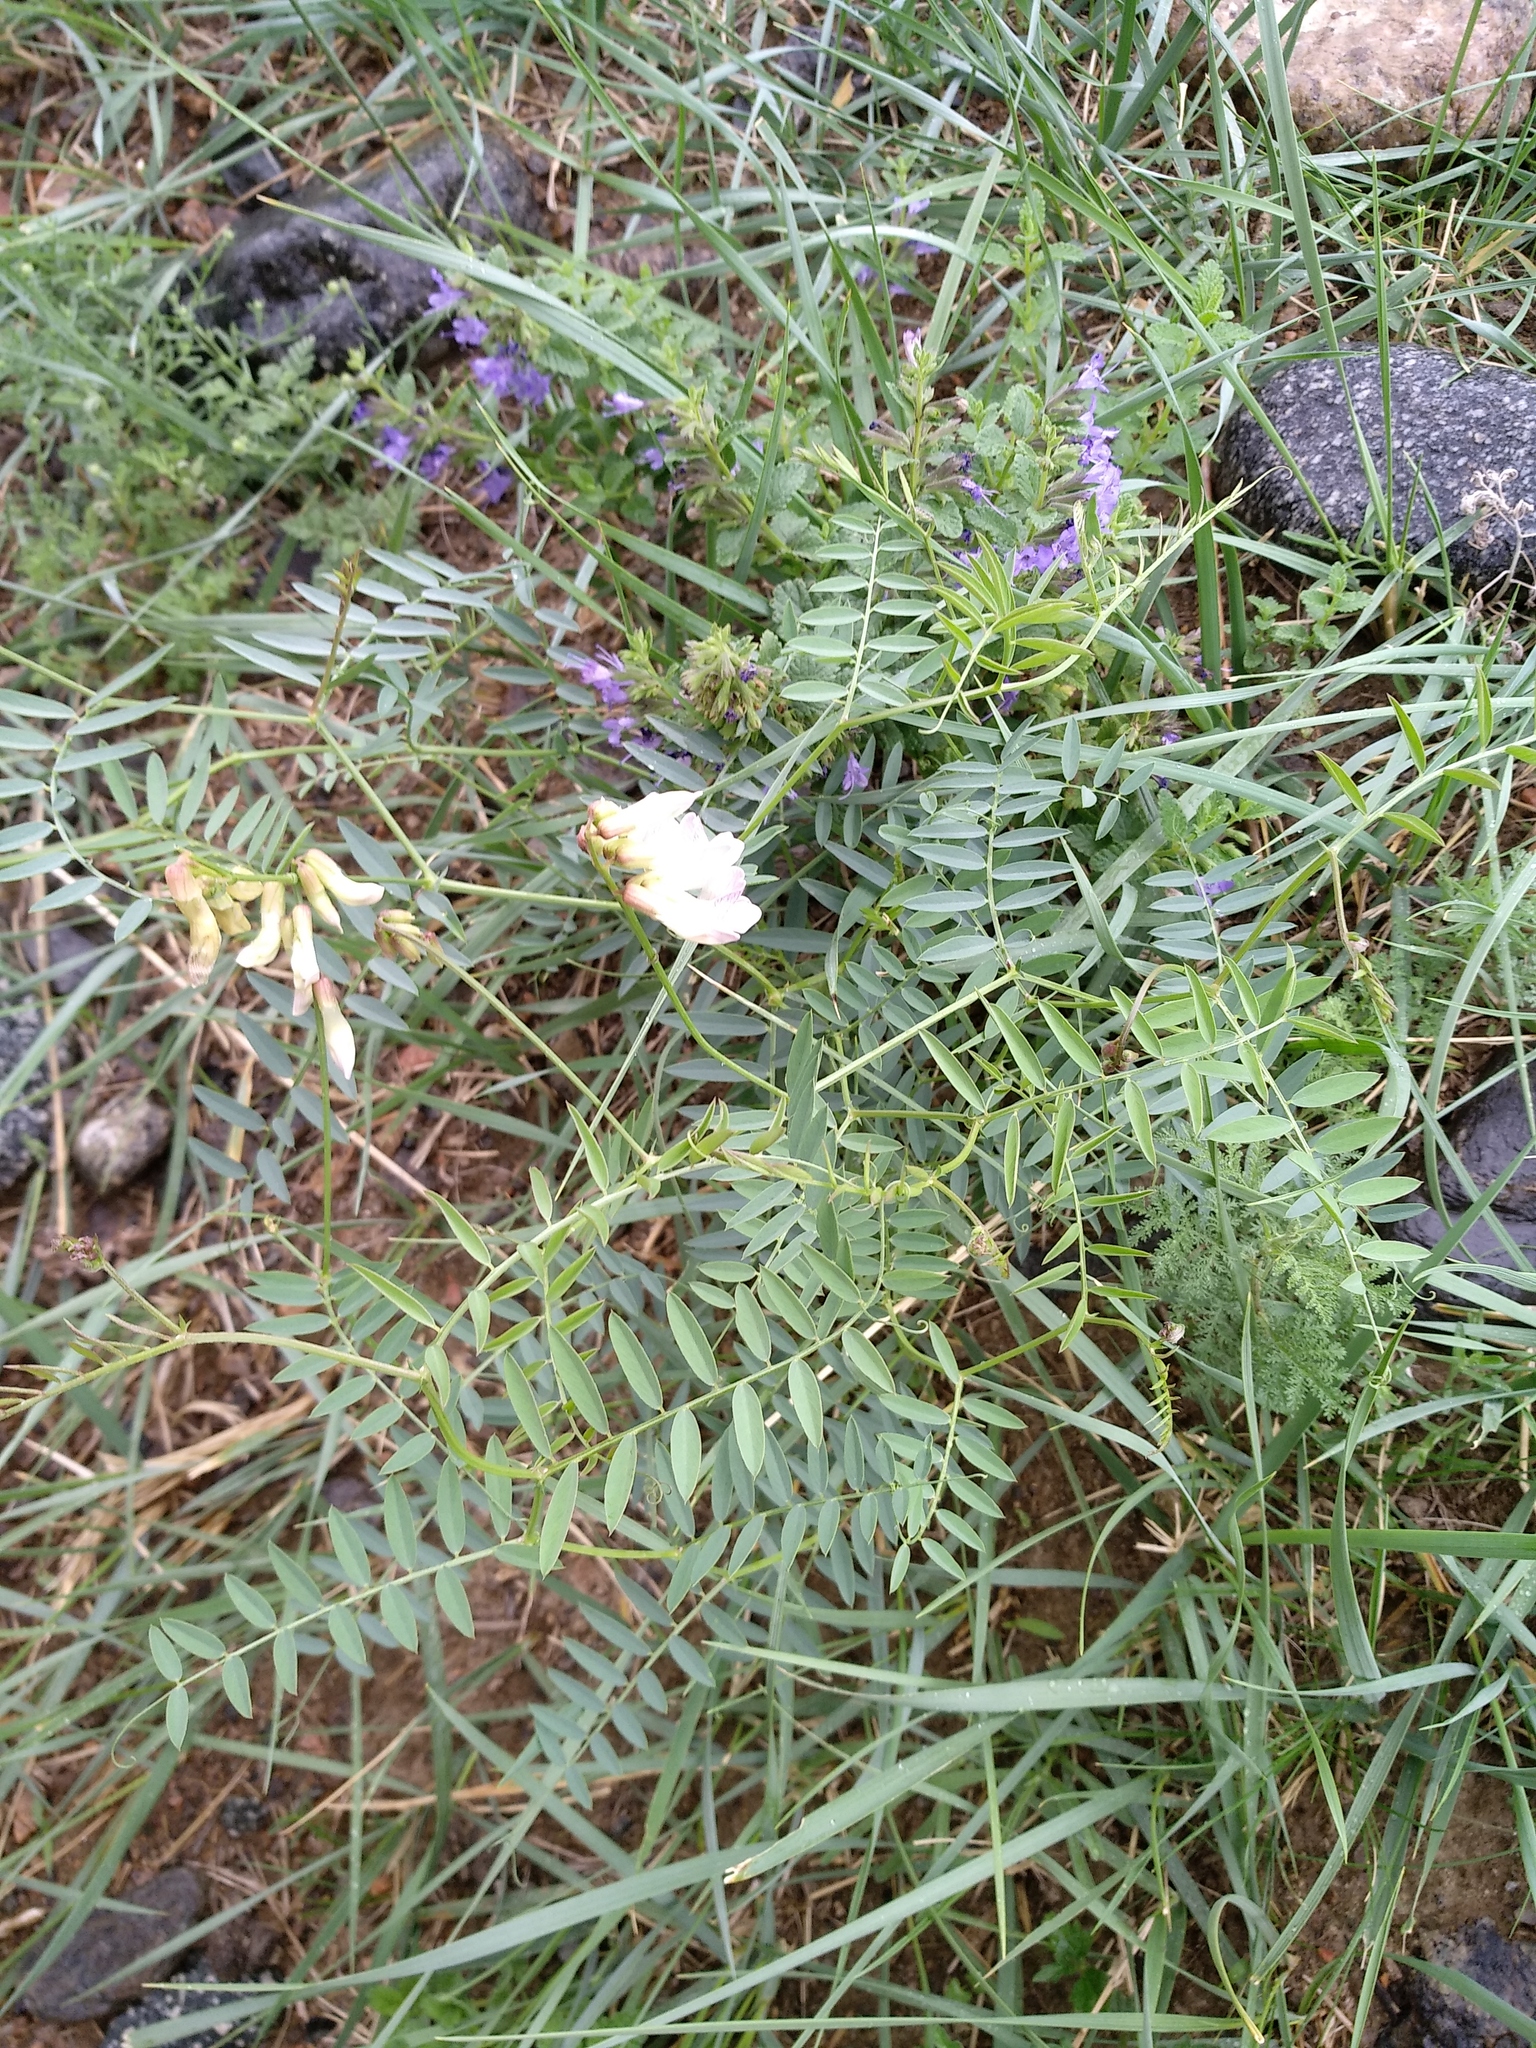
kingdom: Plantae
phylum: Tracheophyta
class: Magnoliopsida
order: Fabales
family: Fabaceae
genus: Vicia
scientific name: Vicia costata
